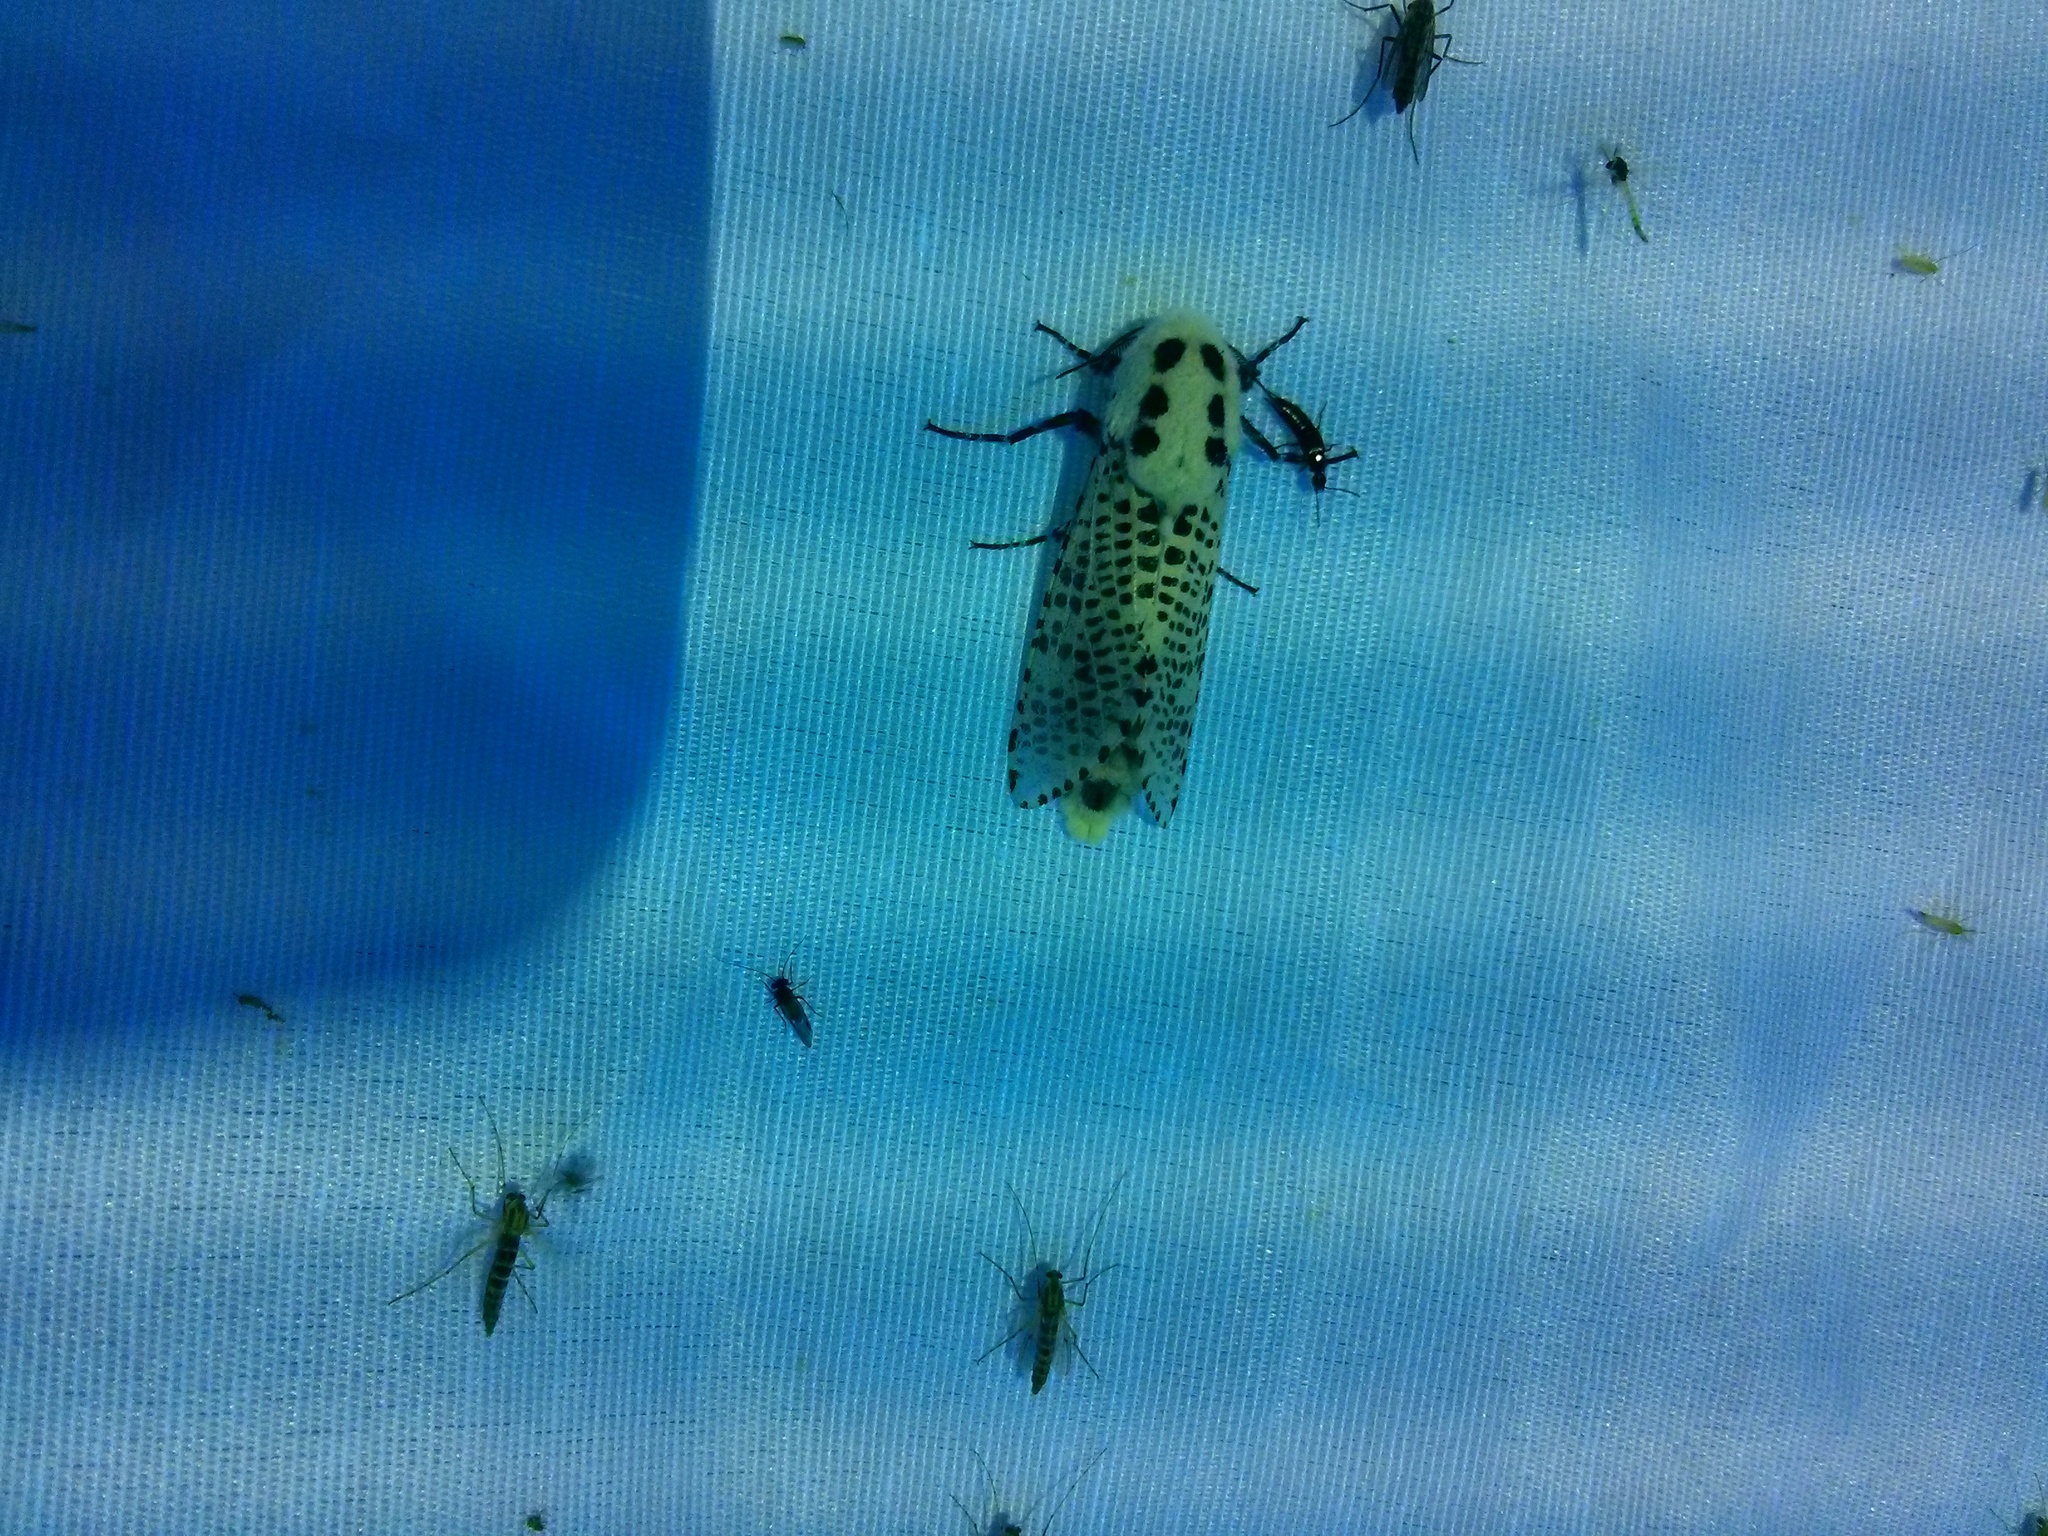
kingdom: Animalia
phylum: Arthropoda
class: Insecta
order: Lepidoptera
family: Cossidae
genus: Zeuzera
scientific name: Zeuzera pyrina
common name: Leopard moth
